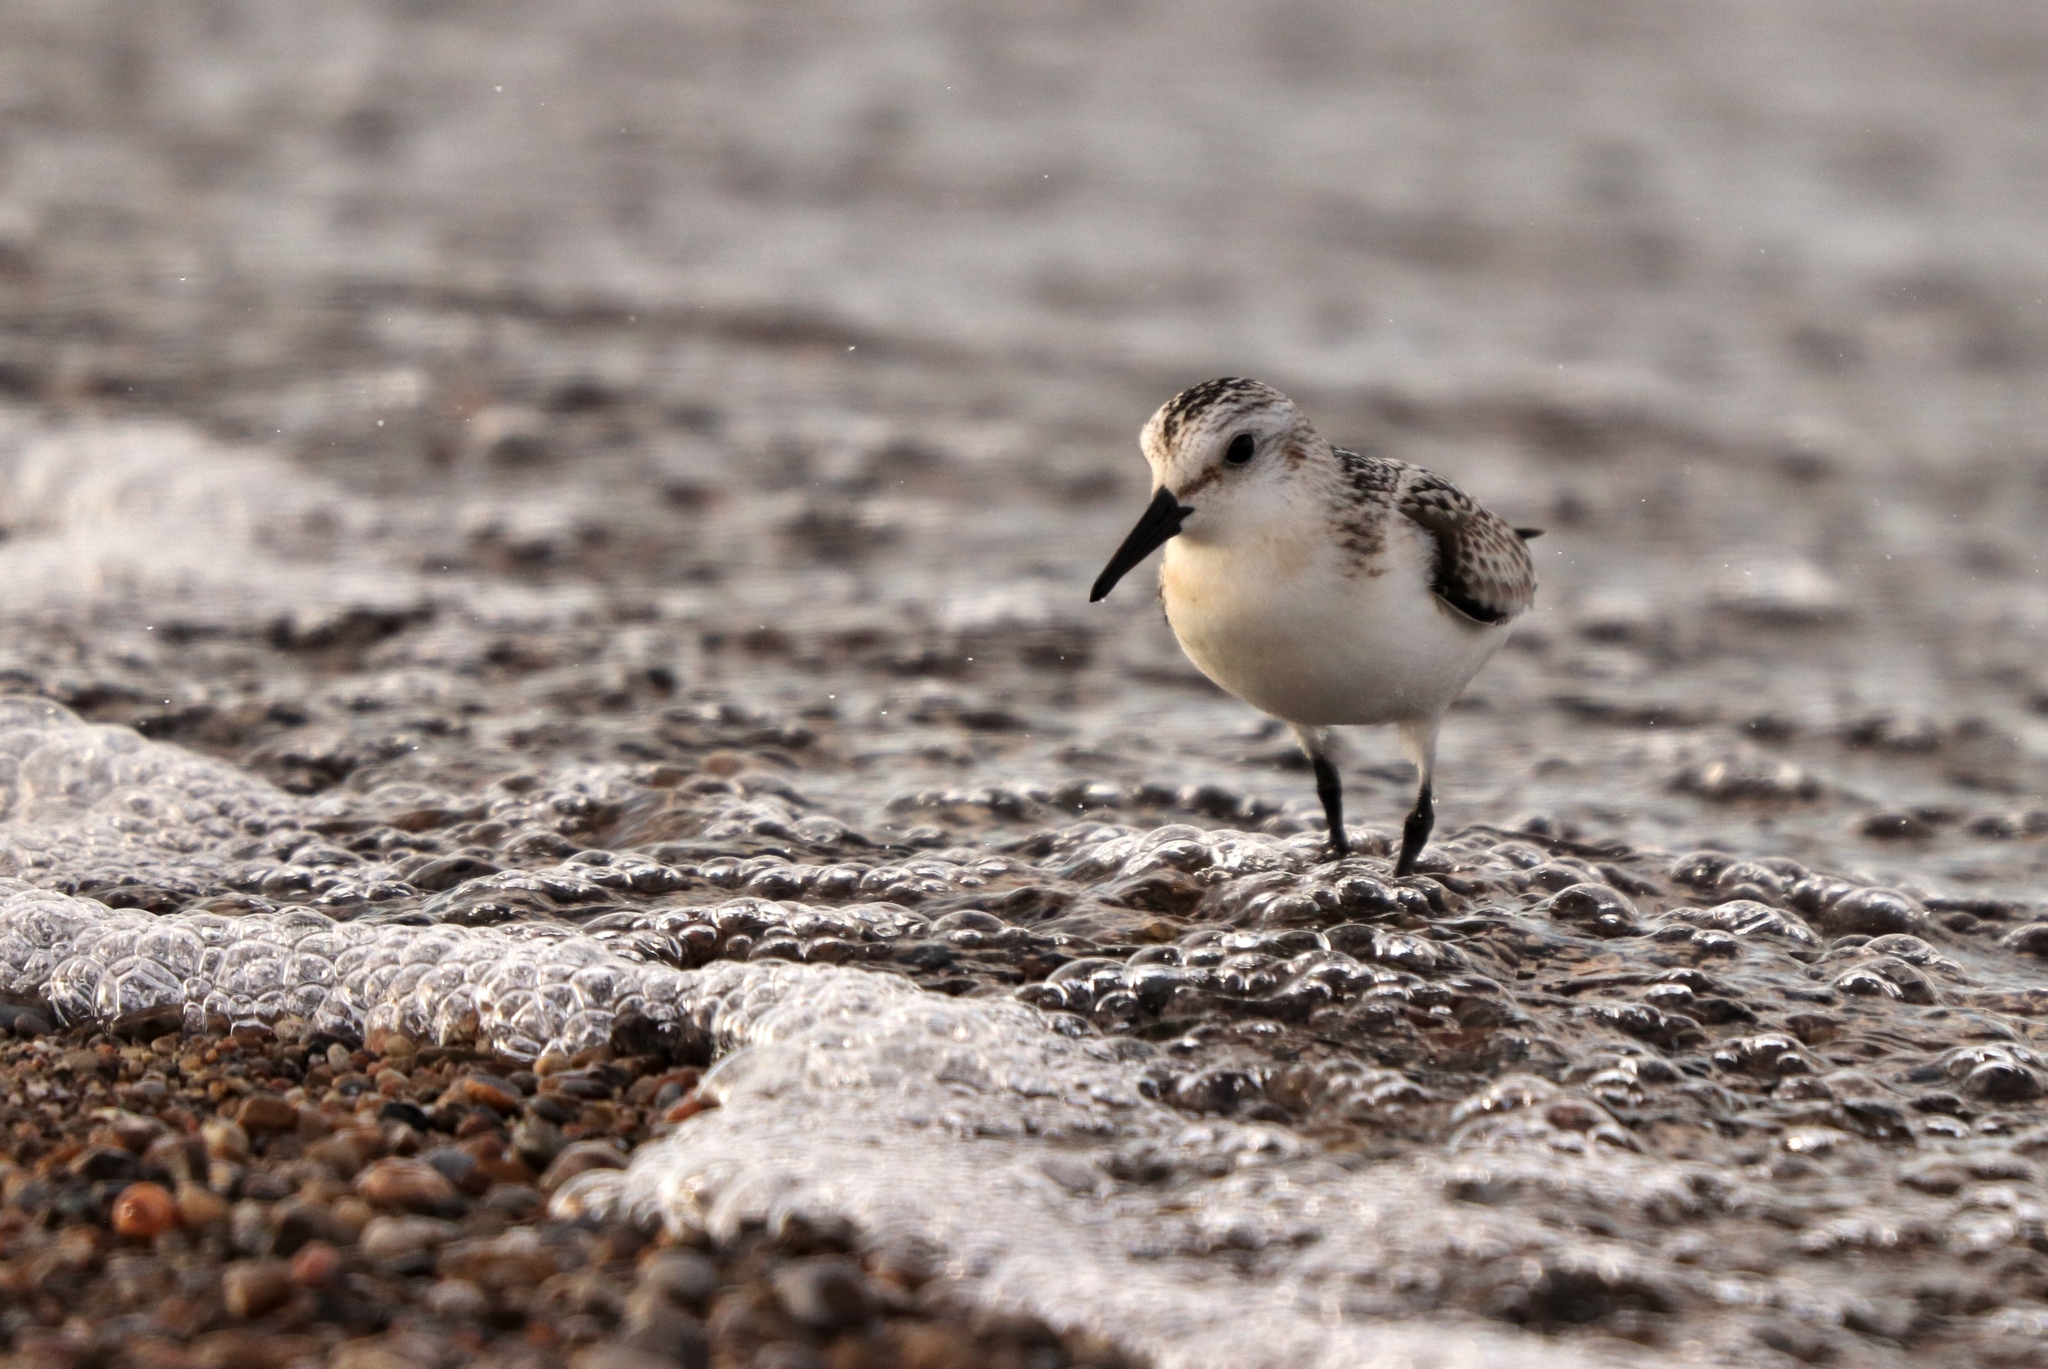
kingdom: Animalia
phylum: Chordata
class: Aves
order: Charadriiformes
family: Scolopacidae
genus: Calidris
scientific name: Calidris alba
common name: Sanderling
